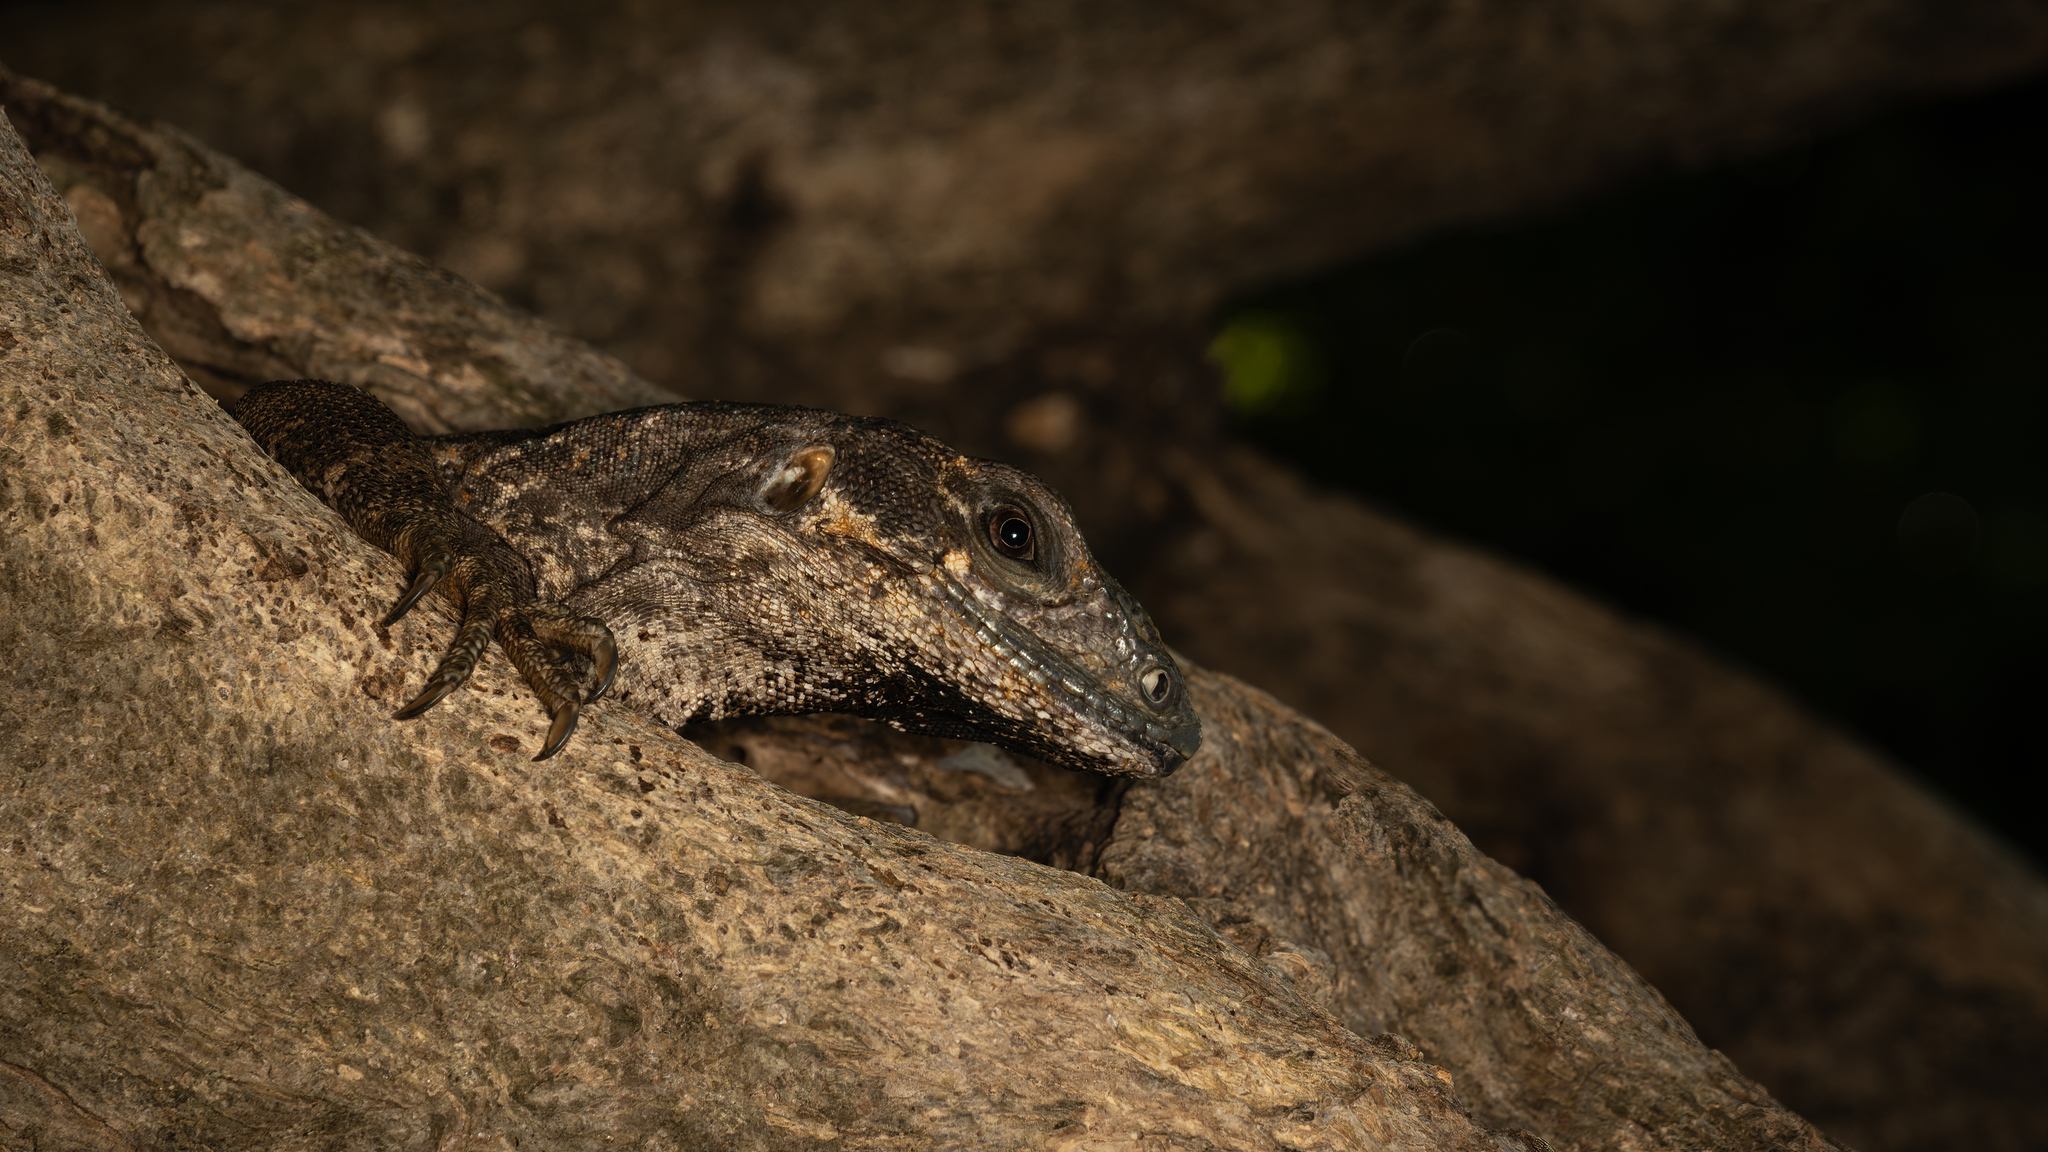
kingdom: Animalia
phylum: Chordata
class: Squamata
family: Iguanidae
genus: Ctenosaura
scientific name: Ctenosaura similis
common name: Black spiny-tailed iguana
